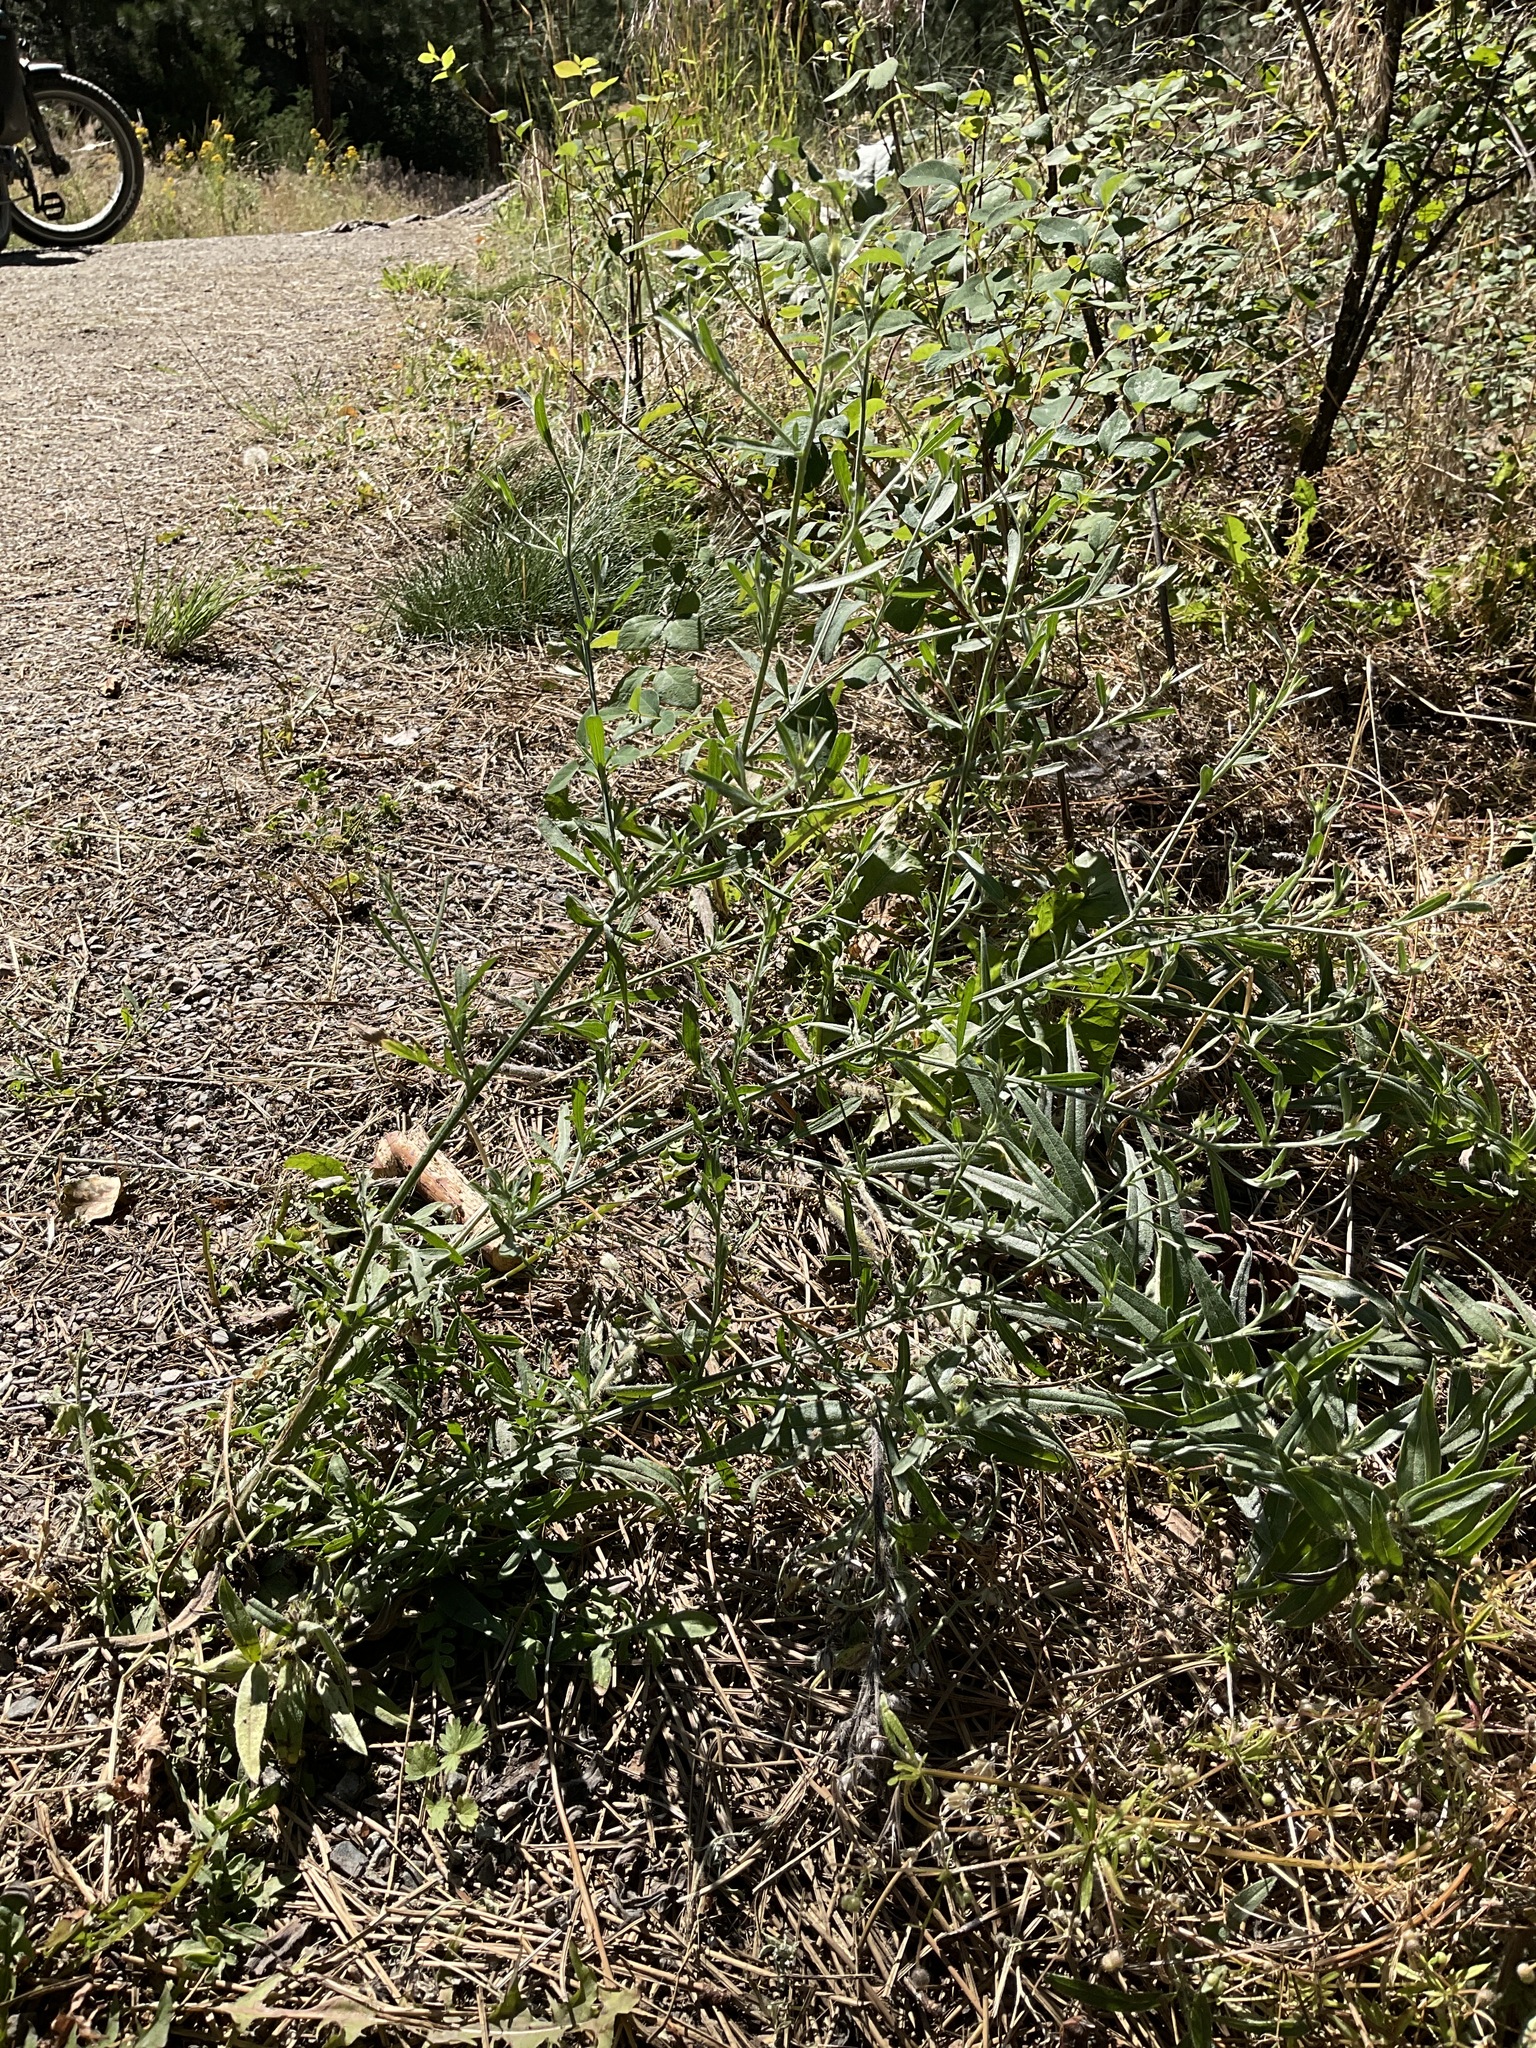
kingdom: Plantae
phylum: Tracheophyta
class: Magnoliopsida
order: Asterales
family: Asteraceae
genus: Centaurea
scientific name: Centaurea diffusa
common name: Diffuse knapweed
